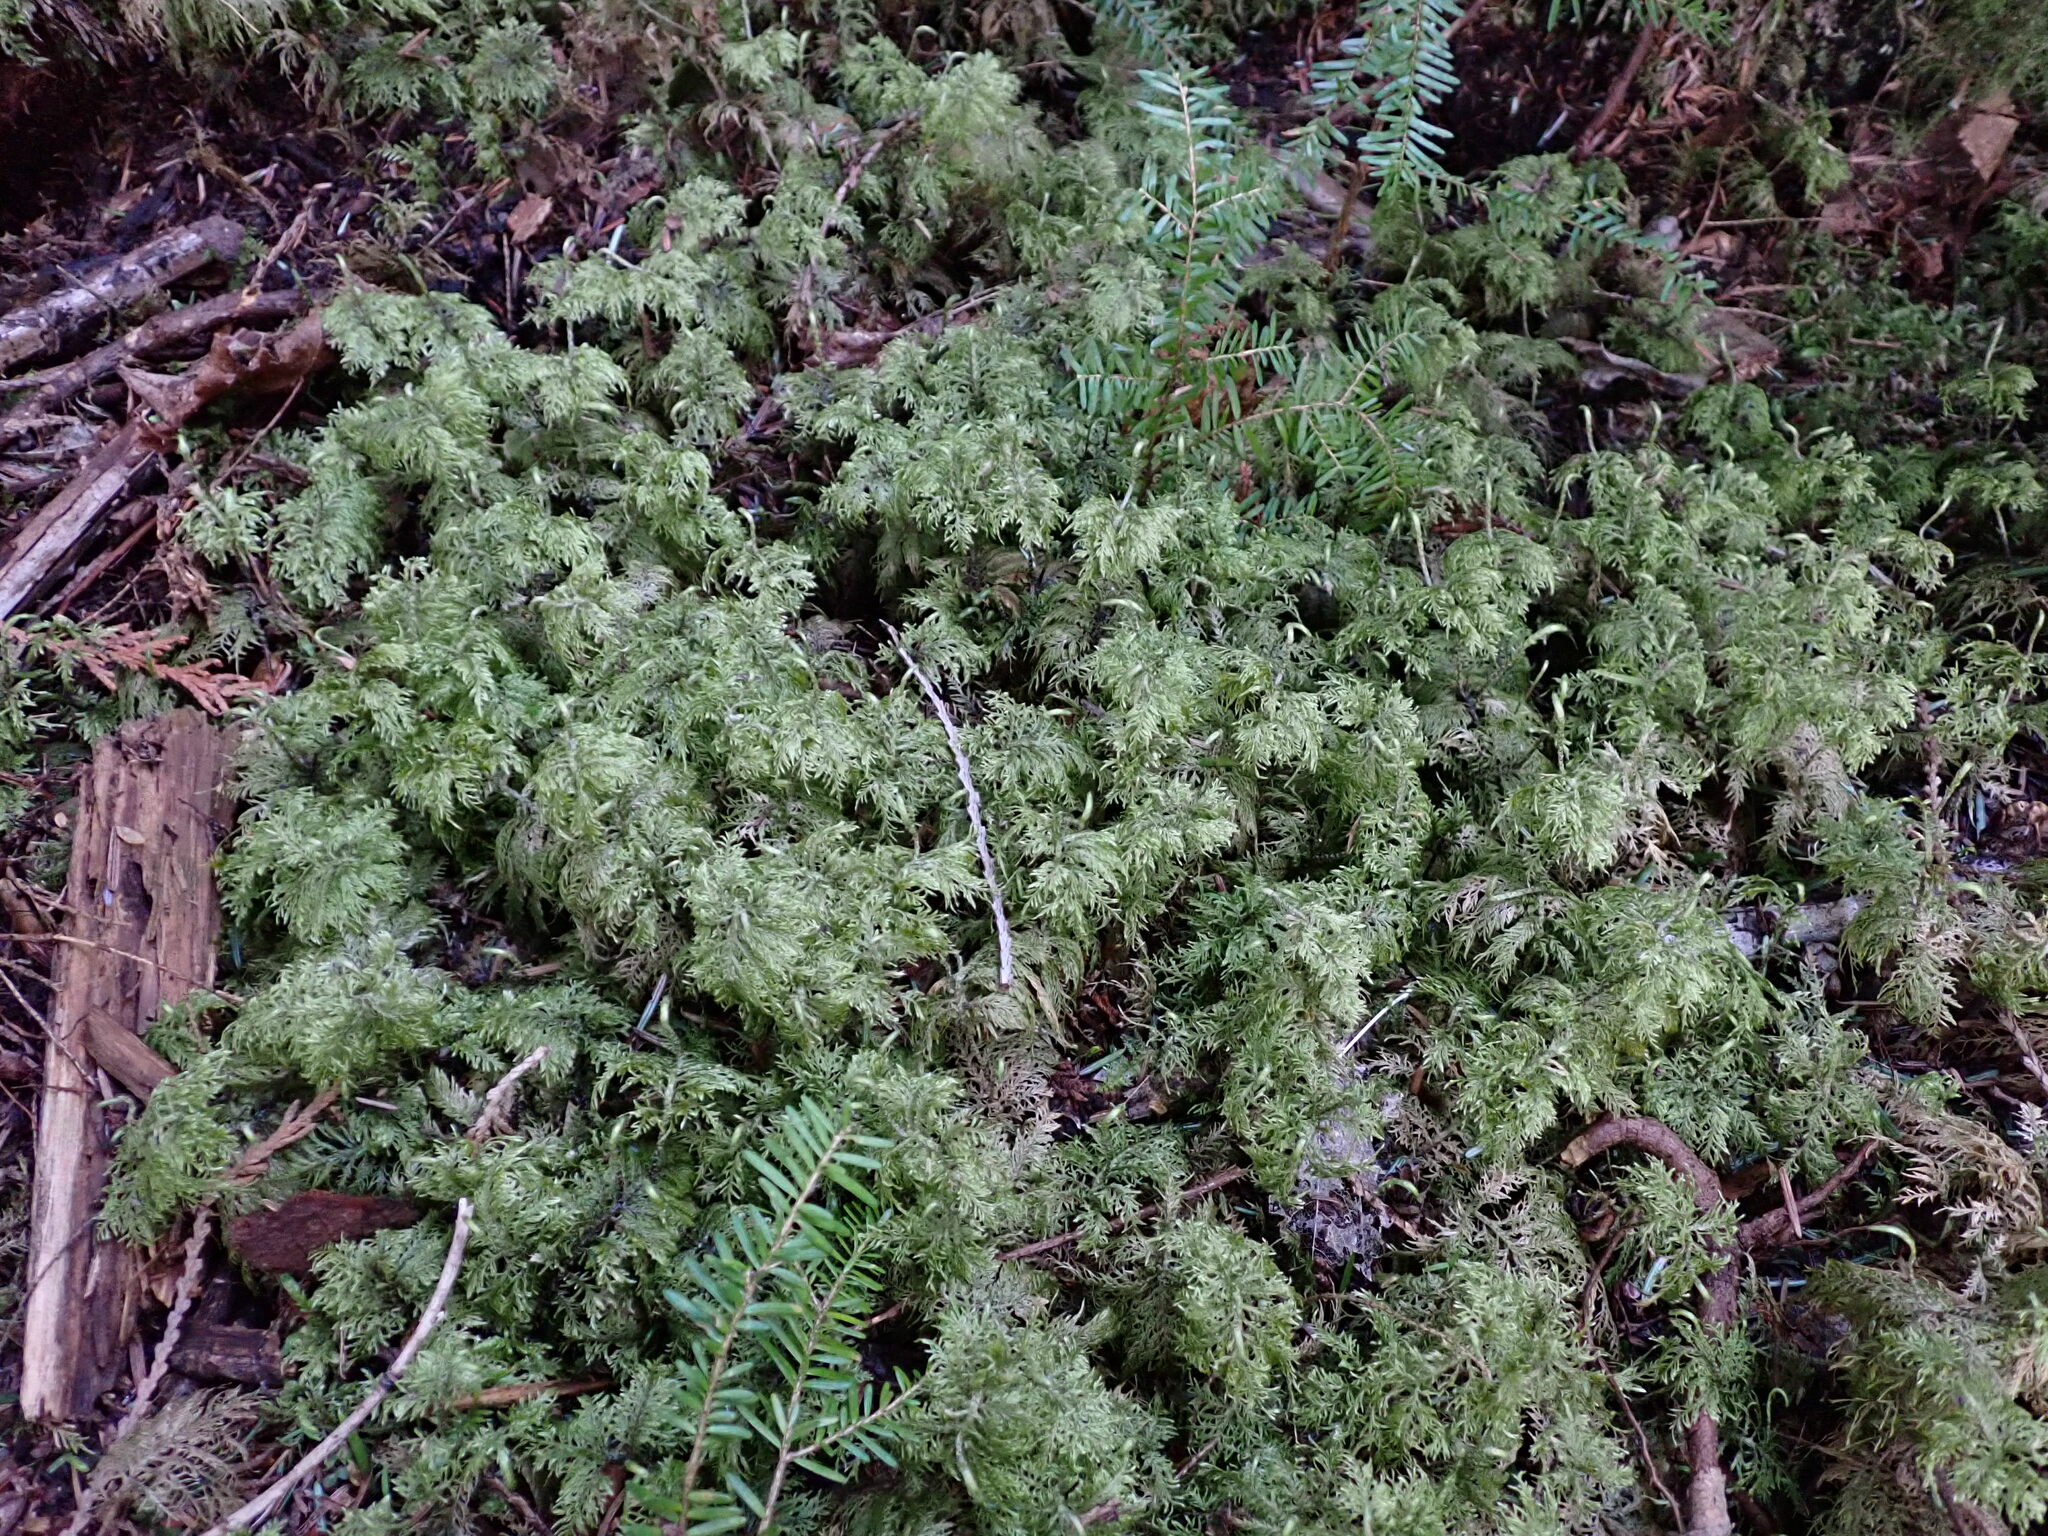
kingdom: Plantae
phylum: Bryophyta
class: Bryopsida
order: Hypnales
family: Hylocomiaceae
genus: Hylocomium
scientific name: Hylocomium splendens
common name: Stairstep moss
